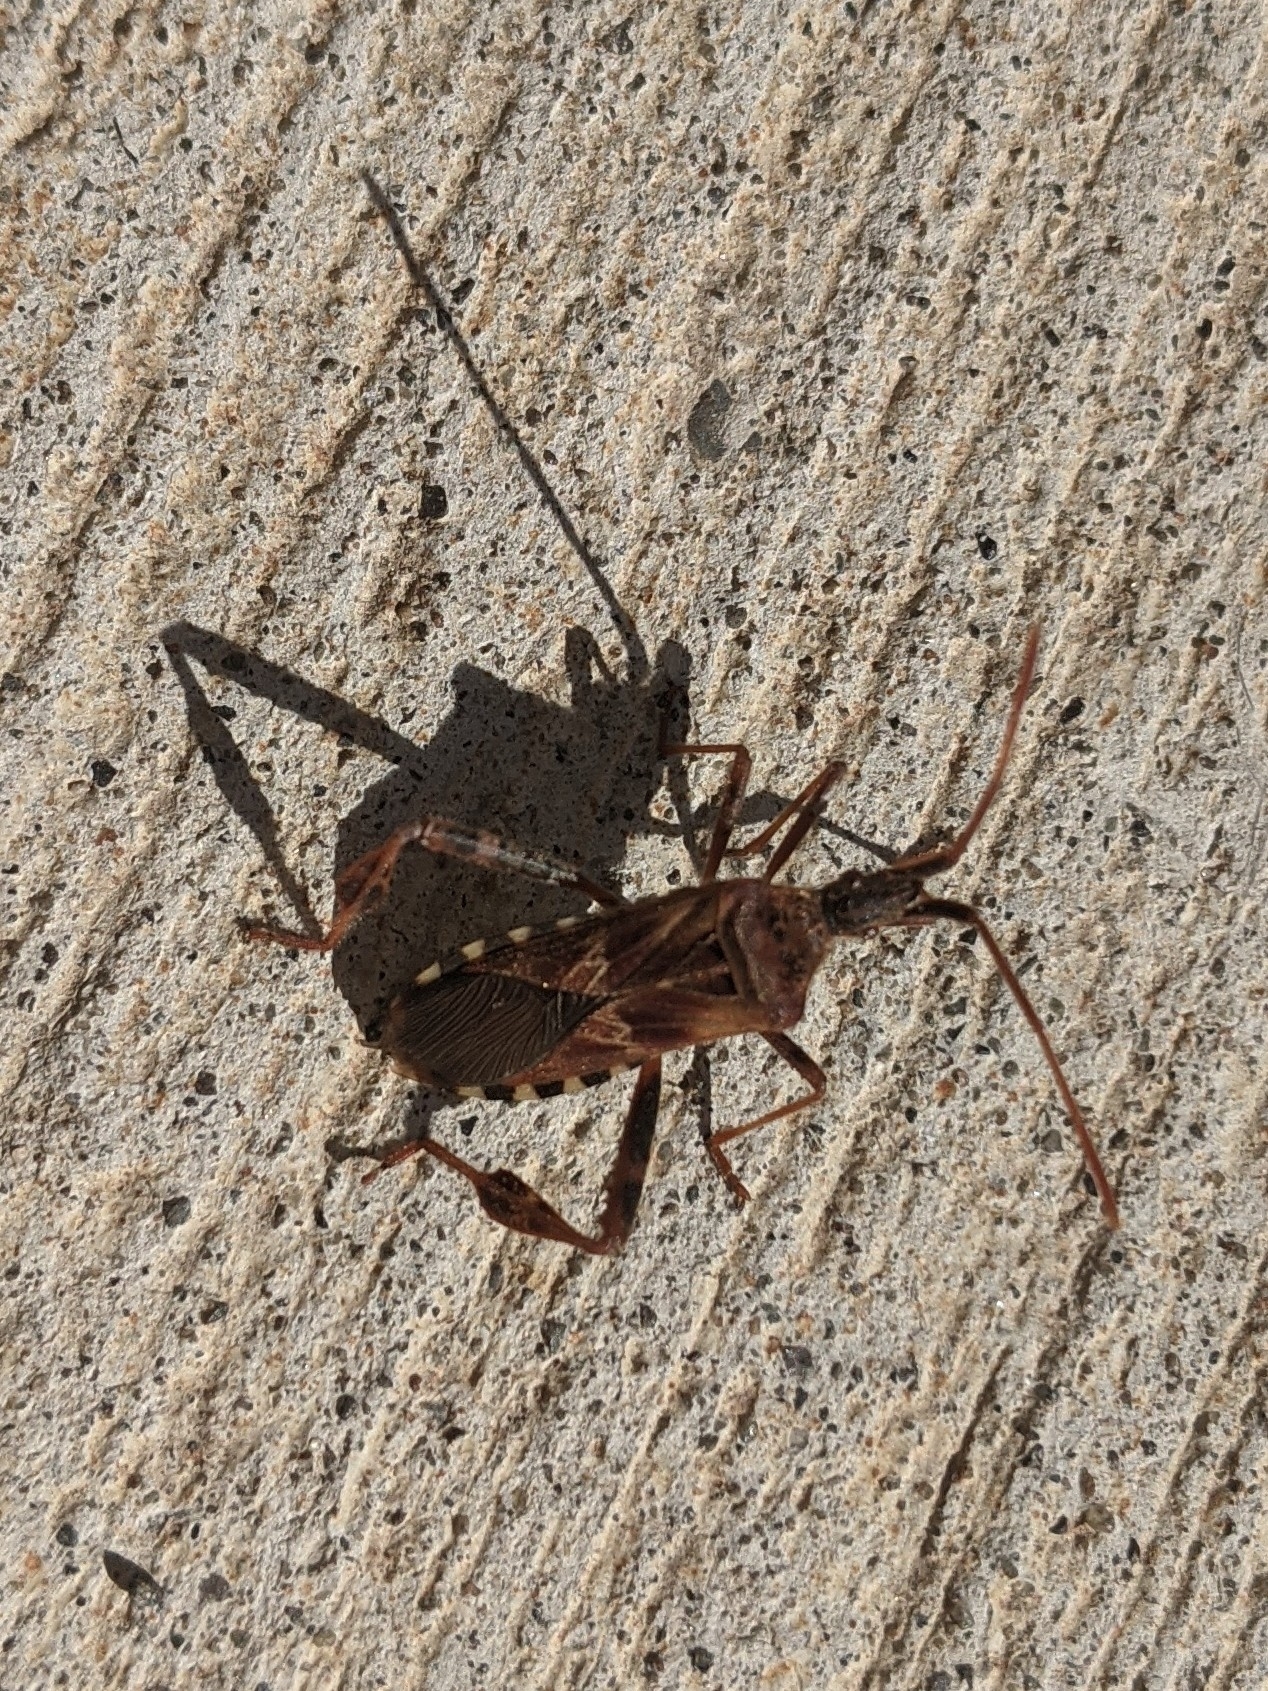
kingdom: Animalia
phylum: Arthropoda
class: Insecta
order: Hemiptera
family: Coreidae
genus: Leptoglossus
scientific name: Leptoglossus occidentalis
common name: Western conifer-seed bug
